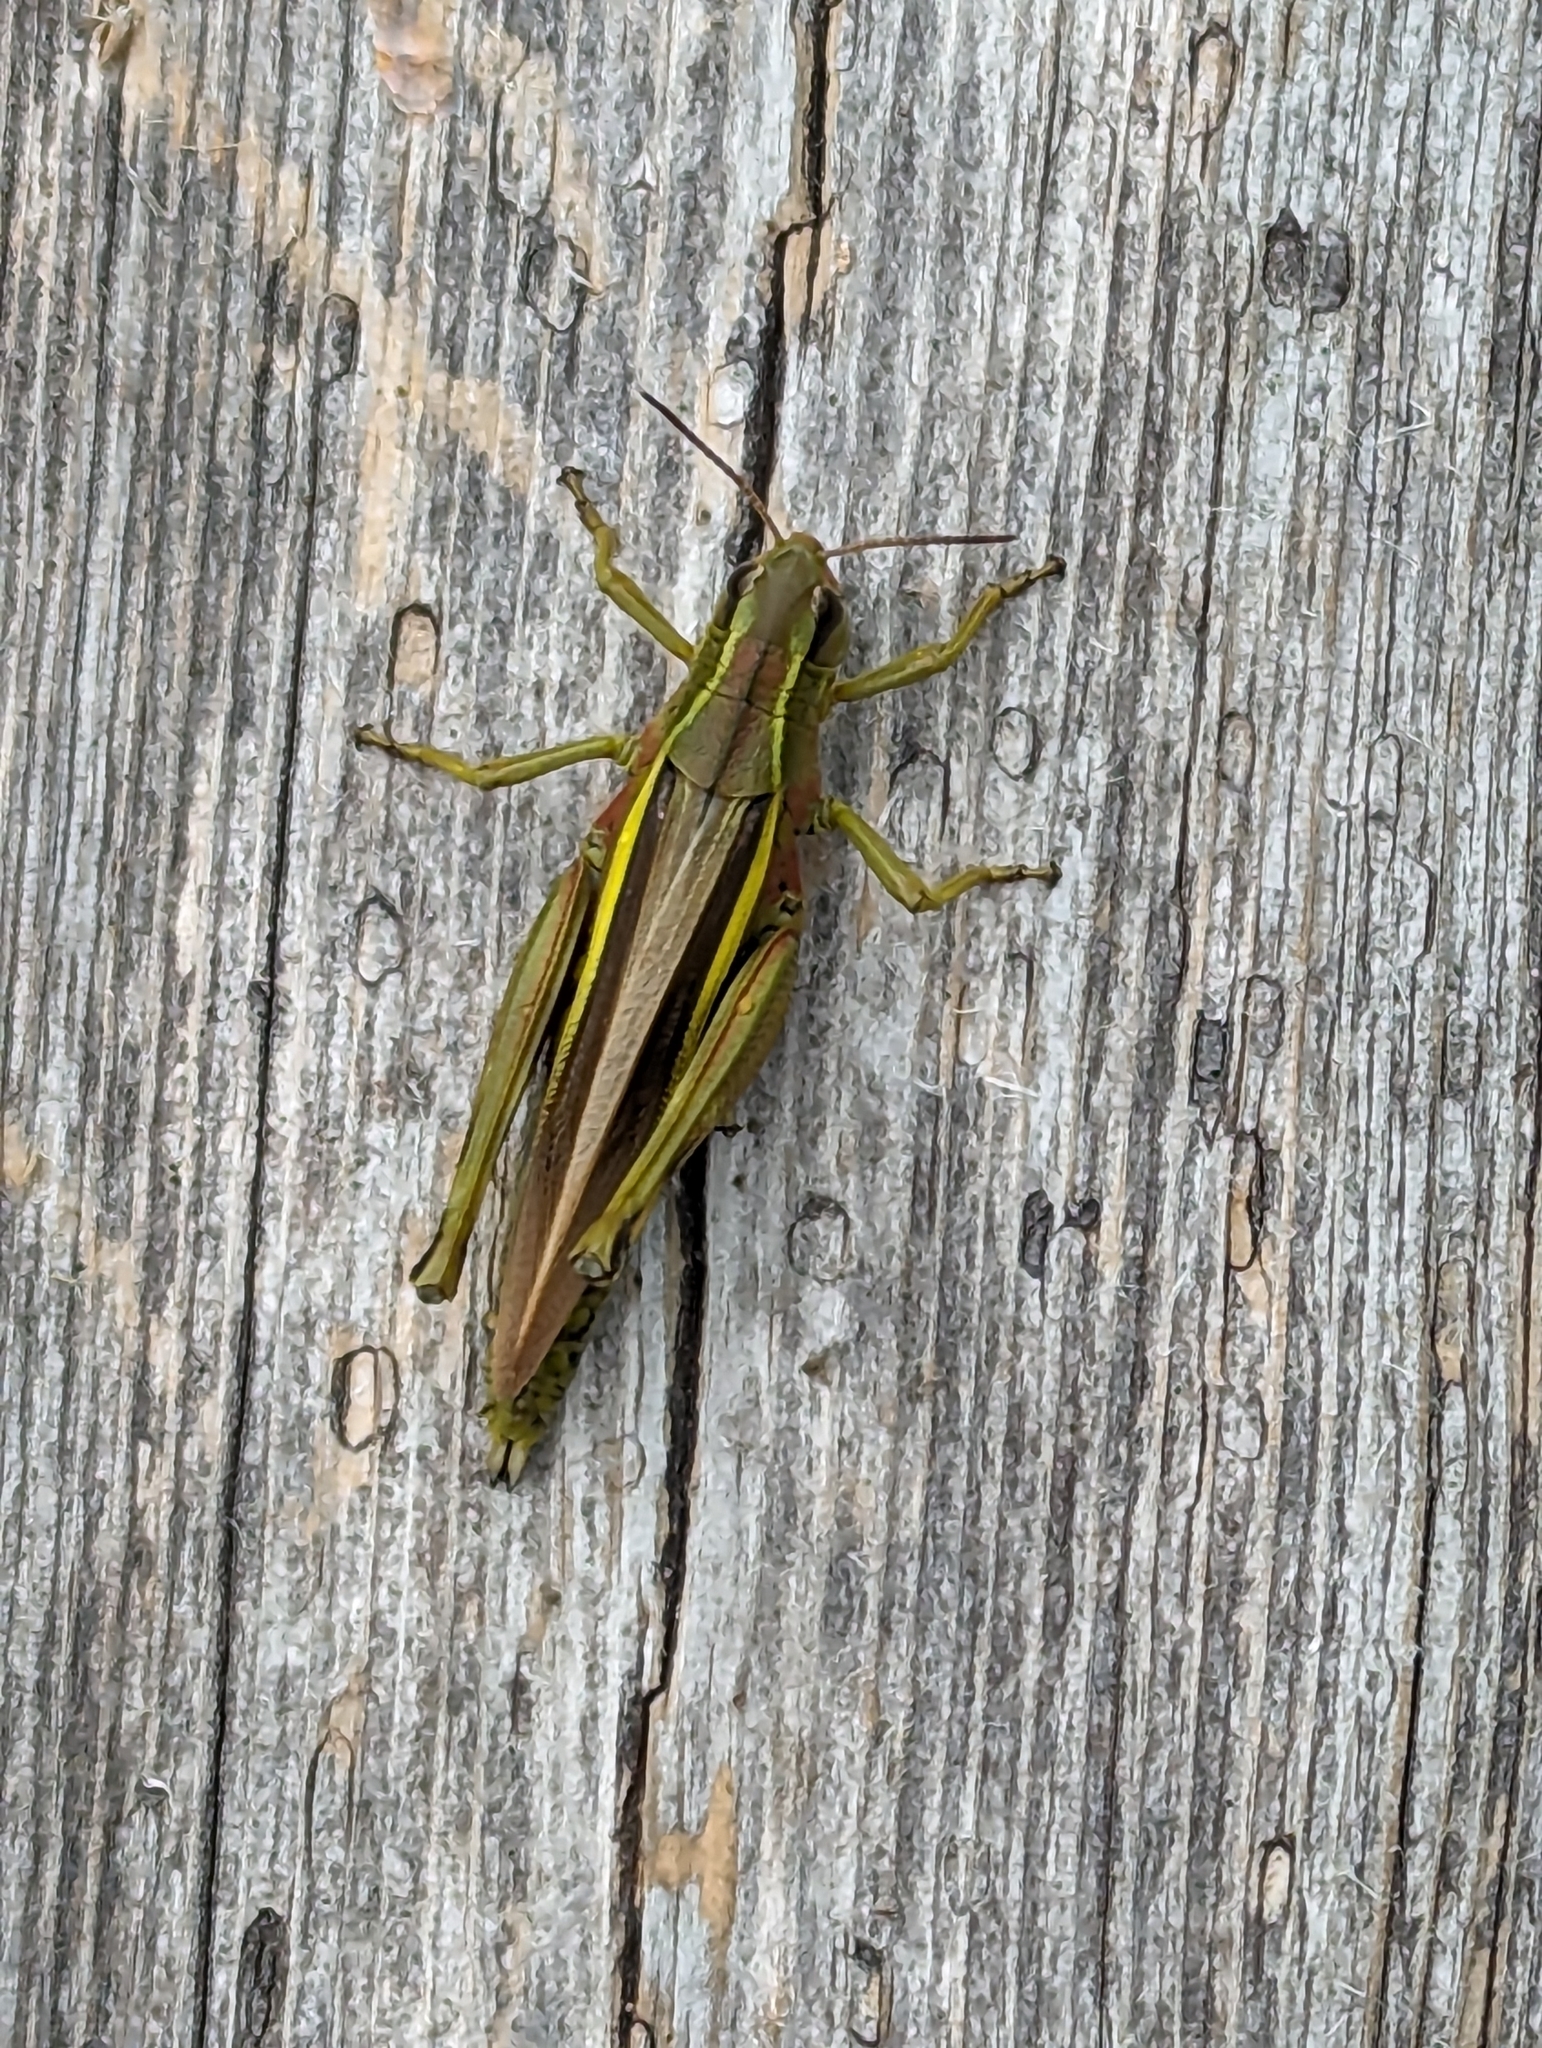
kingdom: Animalia
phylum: Arthropoda
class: Insecta
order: Orthoptera
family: Acrididae
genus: Stethophyma
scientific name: Stethophyma grossum
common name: Large marsh grasshopper
